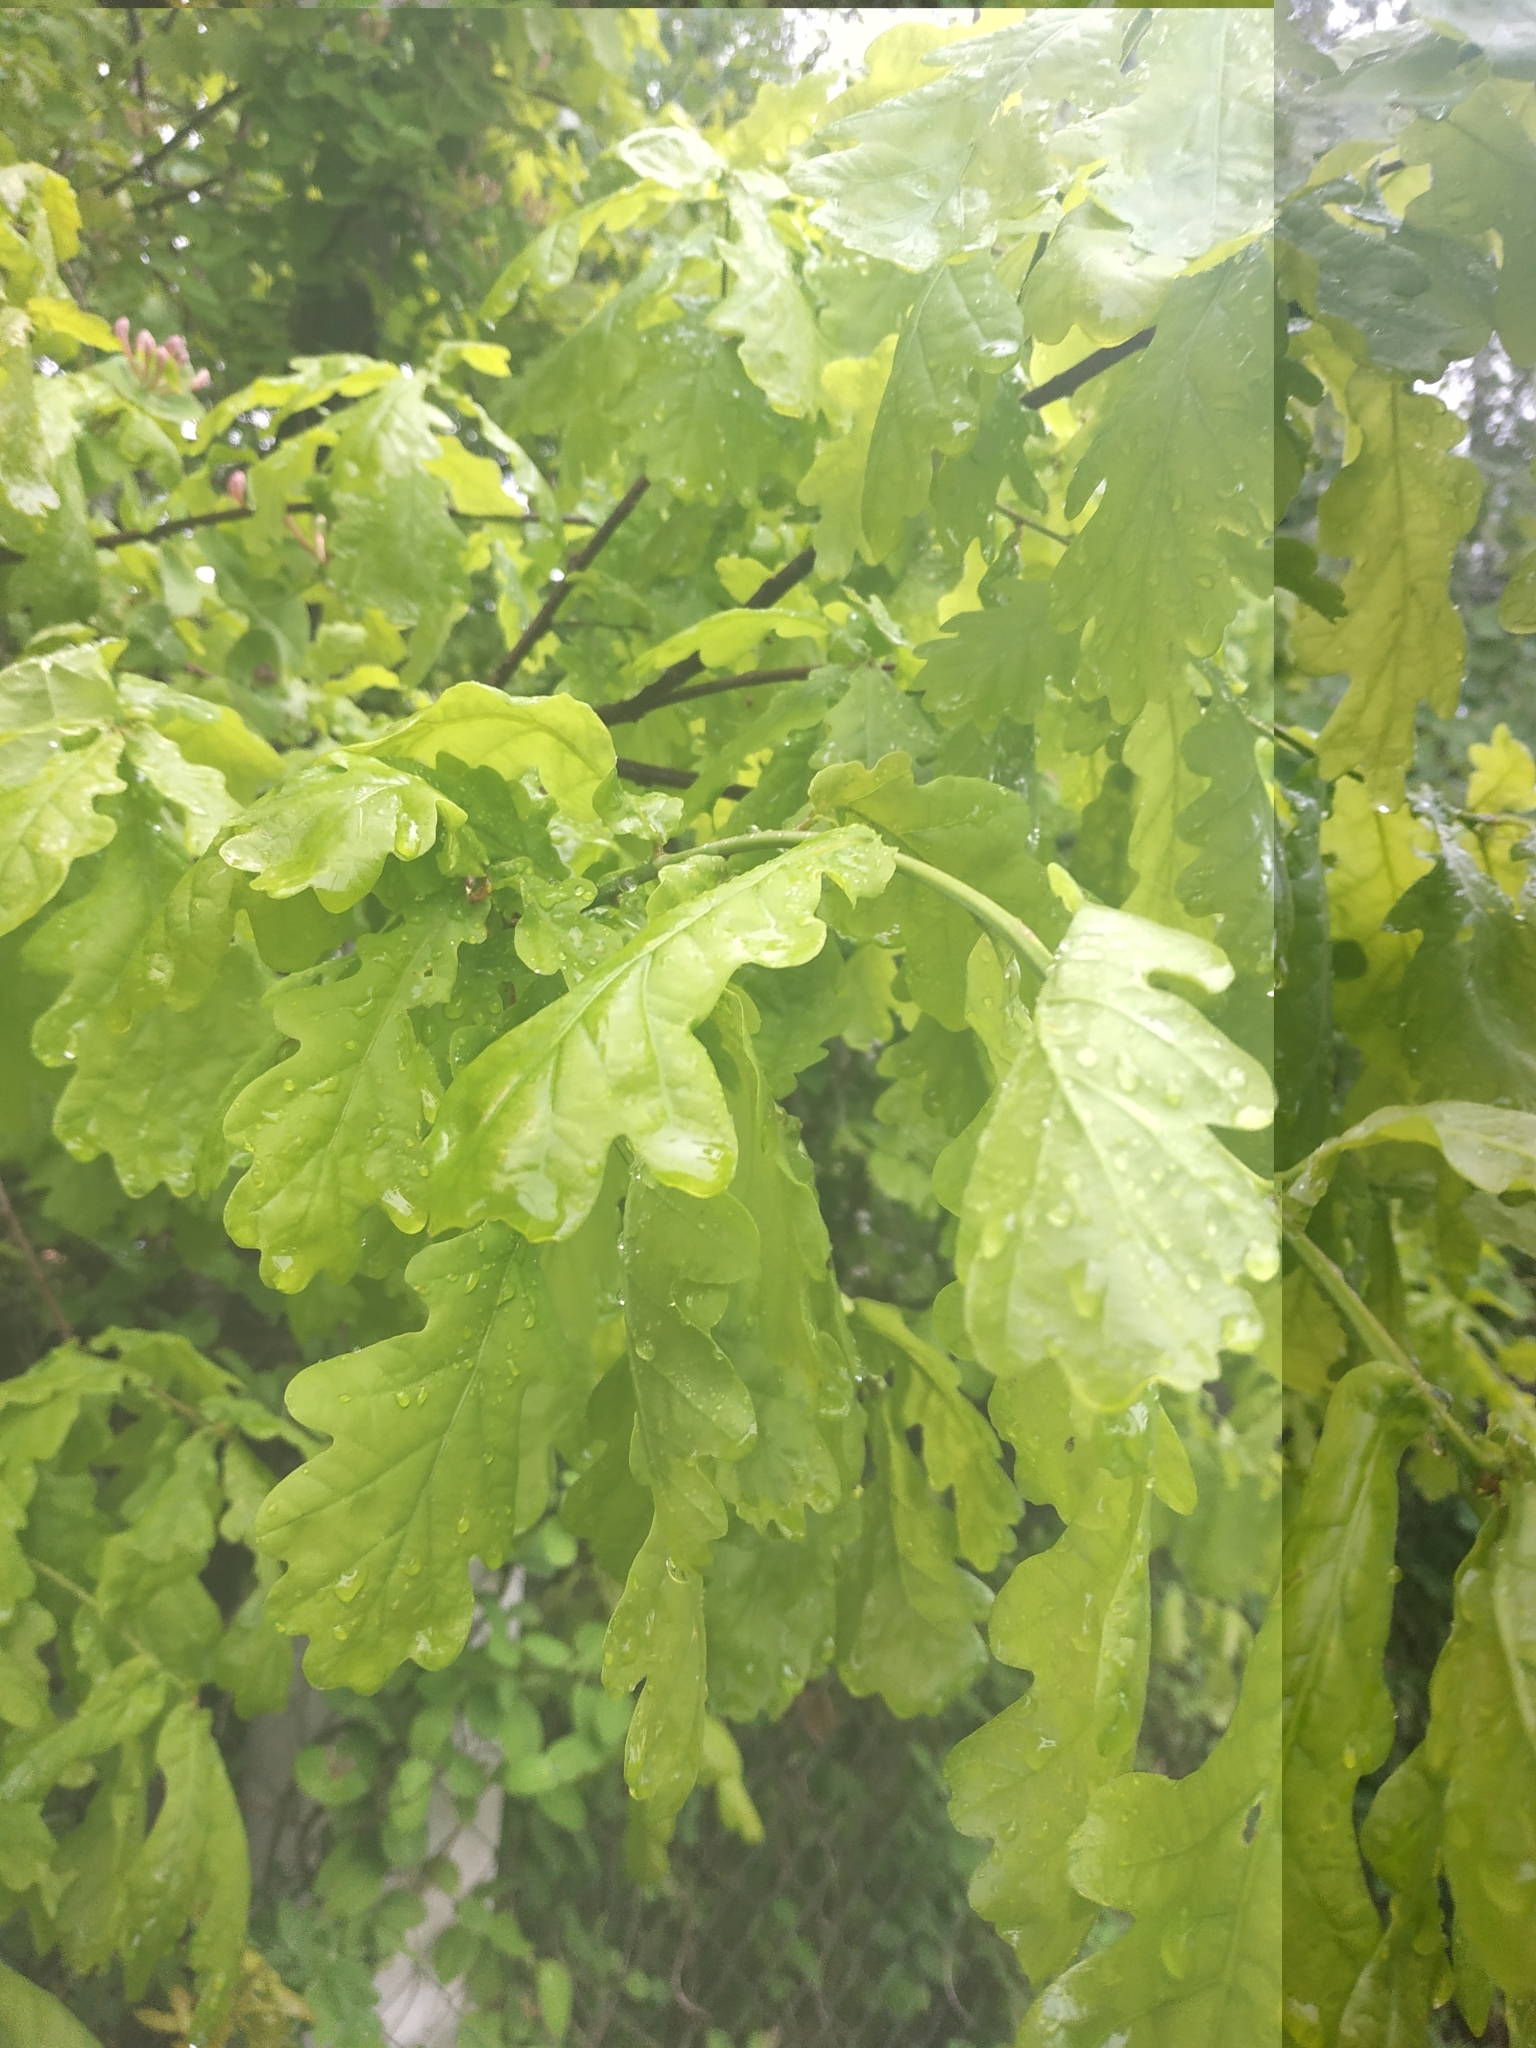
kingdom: Plantae
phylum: Tracheophyta
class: Magnoliopsida
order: Fagales
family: Fagaceae
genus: Quercus
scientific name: Quercus robur
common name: Pedunculate oak
